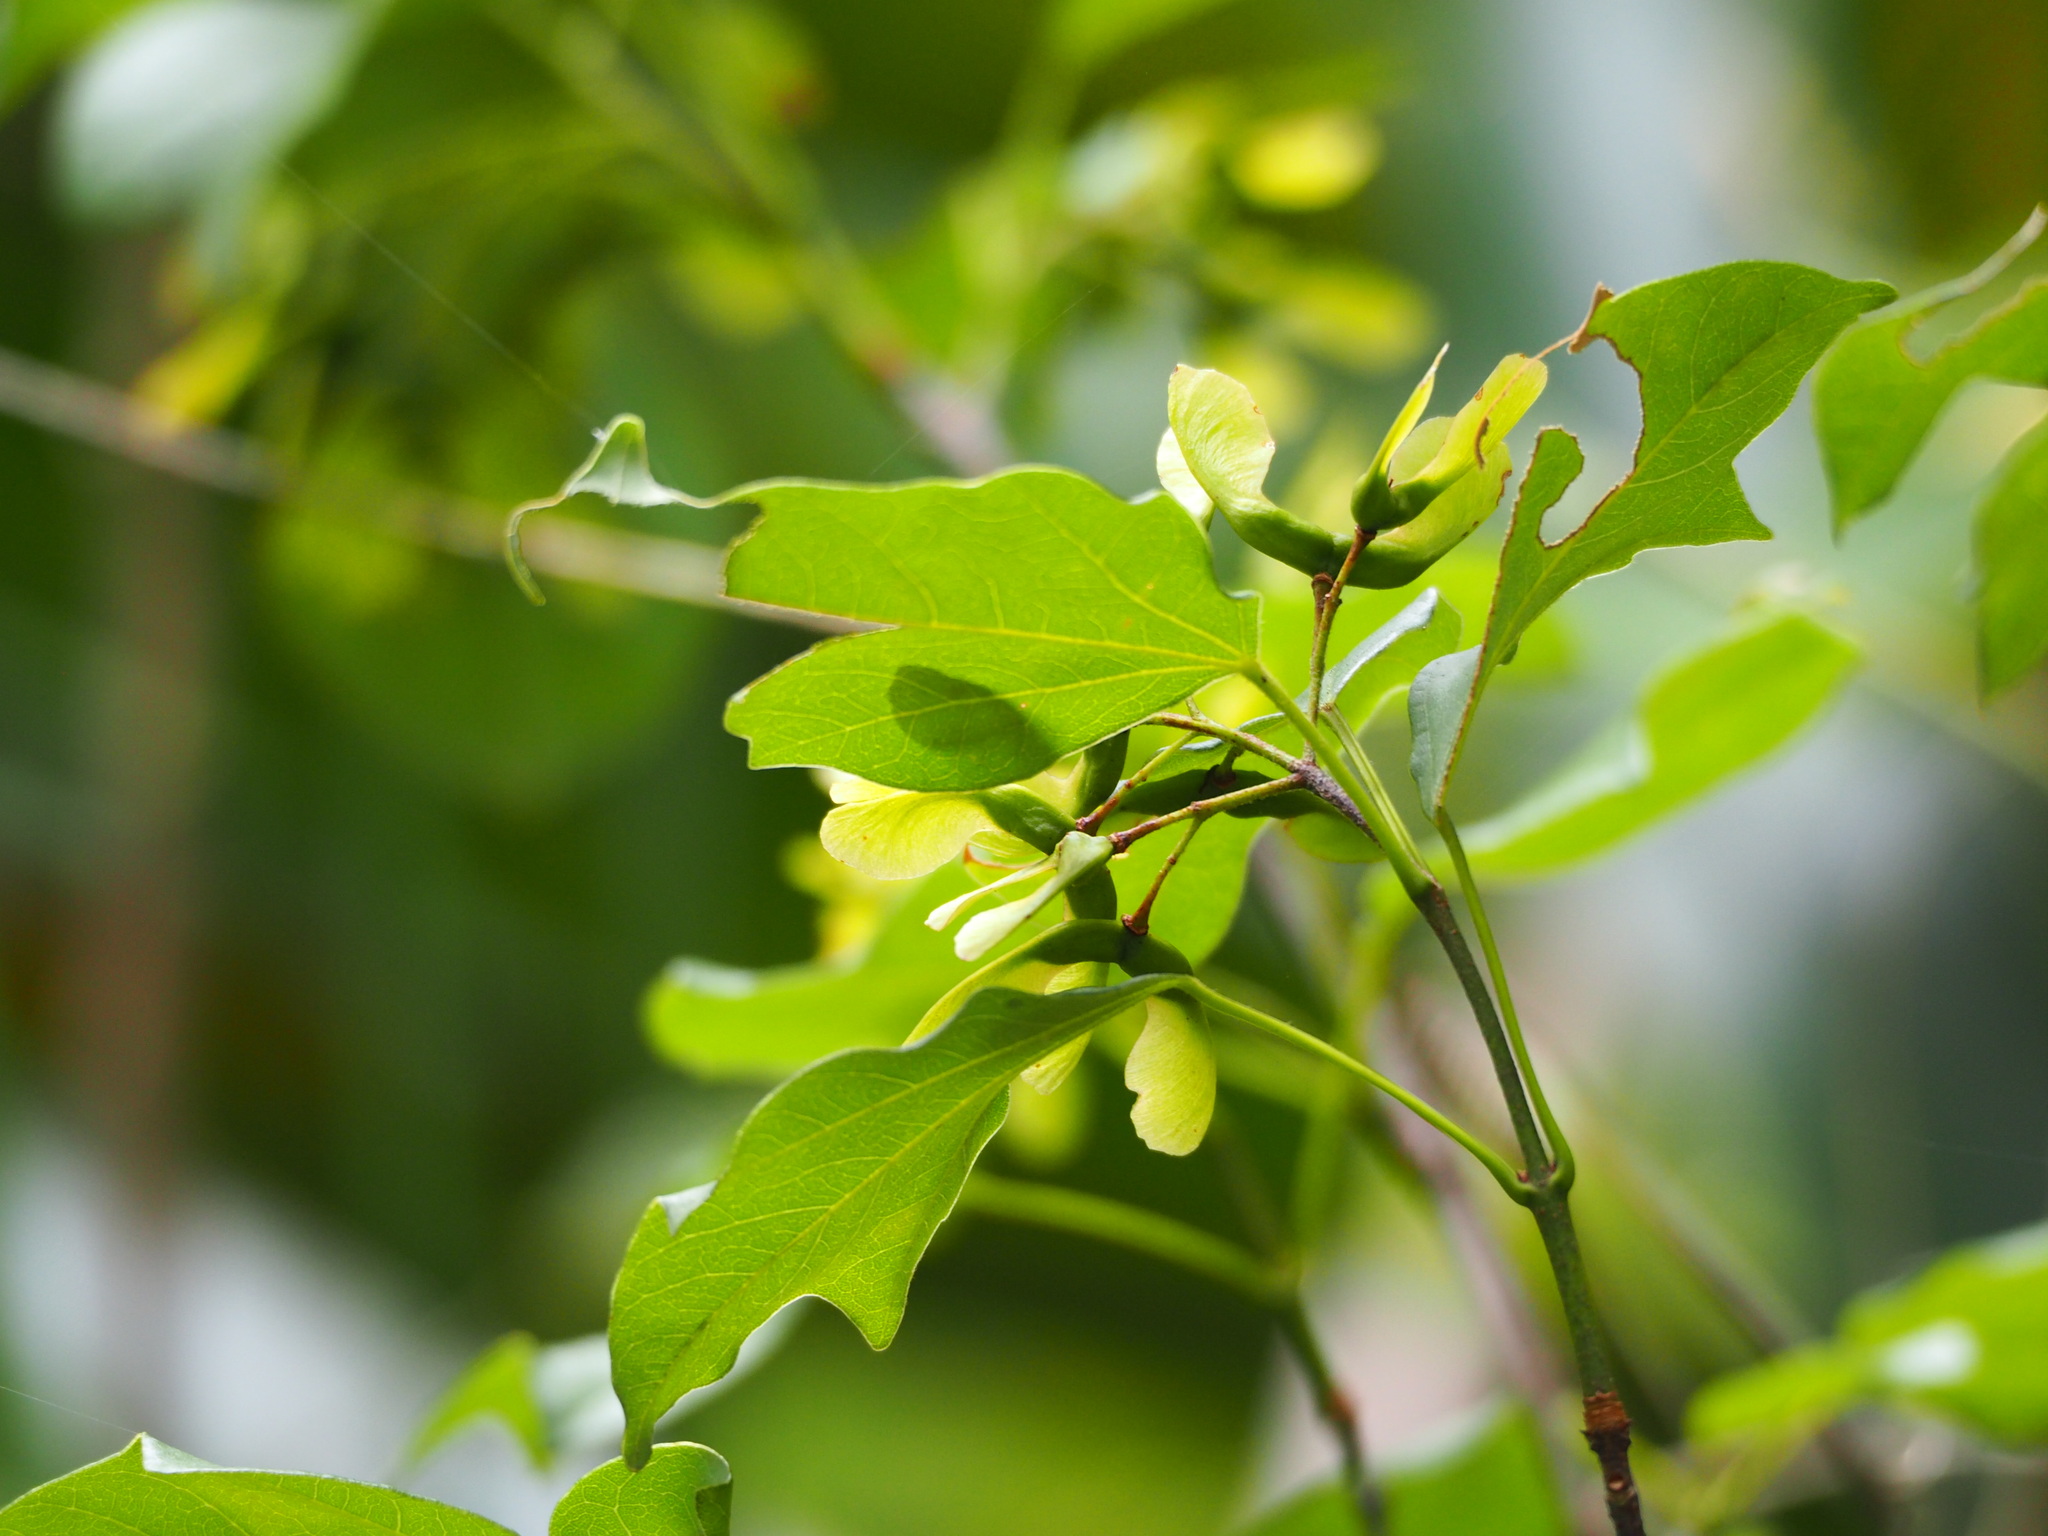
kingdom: Plantae
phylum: Tracheophyta
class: Magnoliopsida
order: Sapindales
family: Sapindaceae
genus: Acer
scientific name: Acer buergerianum
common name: Trident maple
